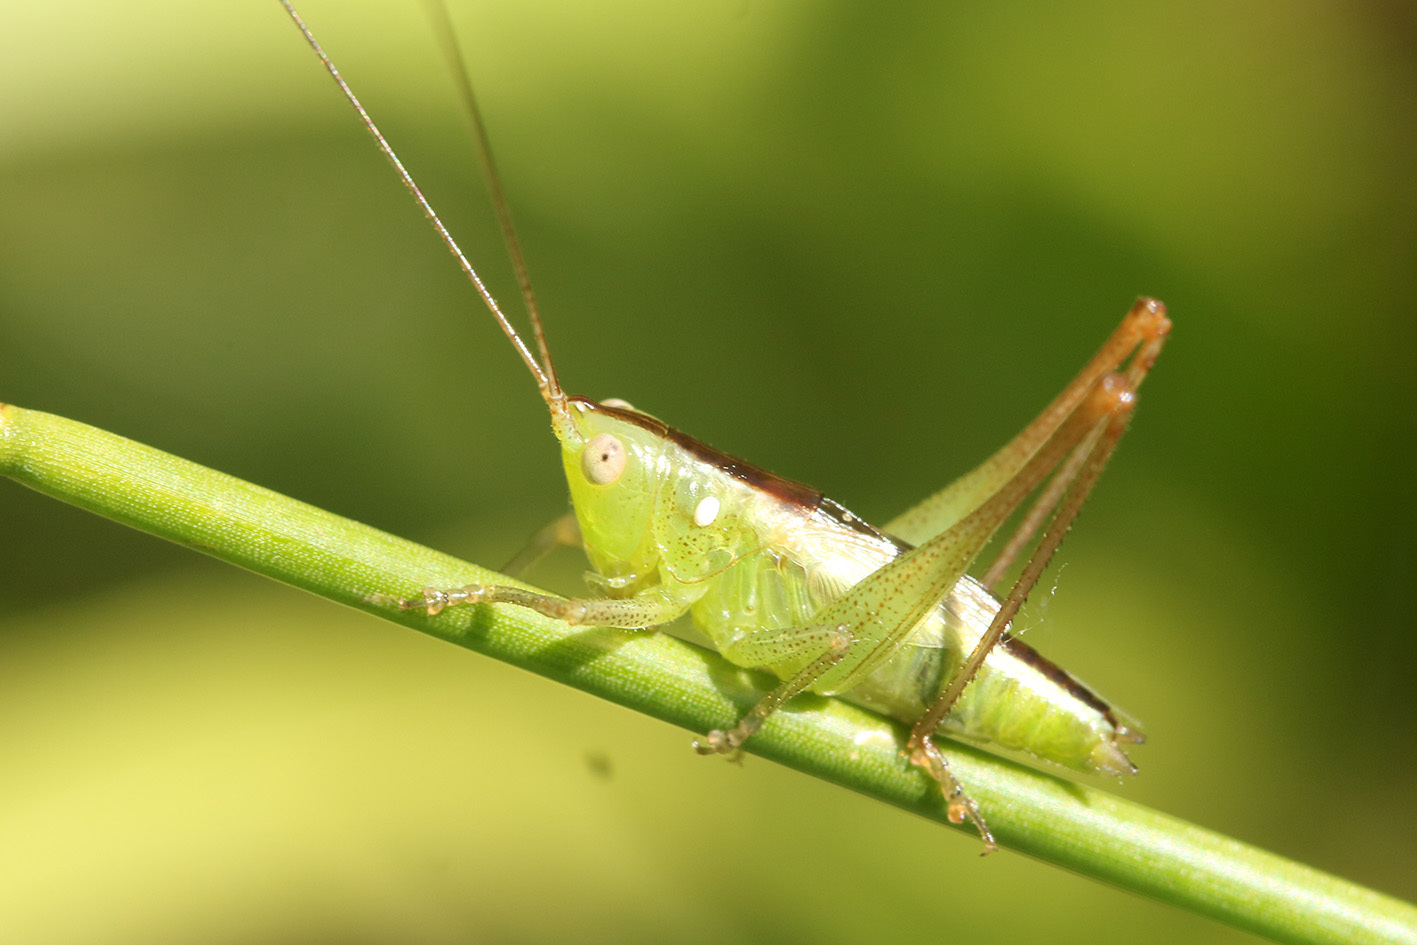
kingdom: Animalia
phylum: Arthropoda
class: Insecta
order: Orthoptera
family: Tettigoniidae
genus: Conocephalus
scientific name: Conocephalus longipes
